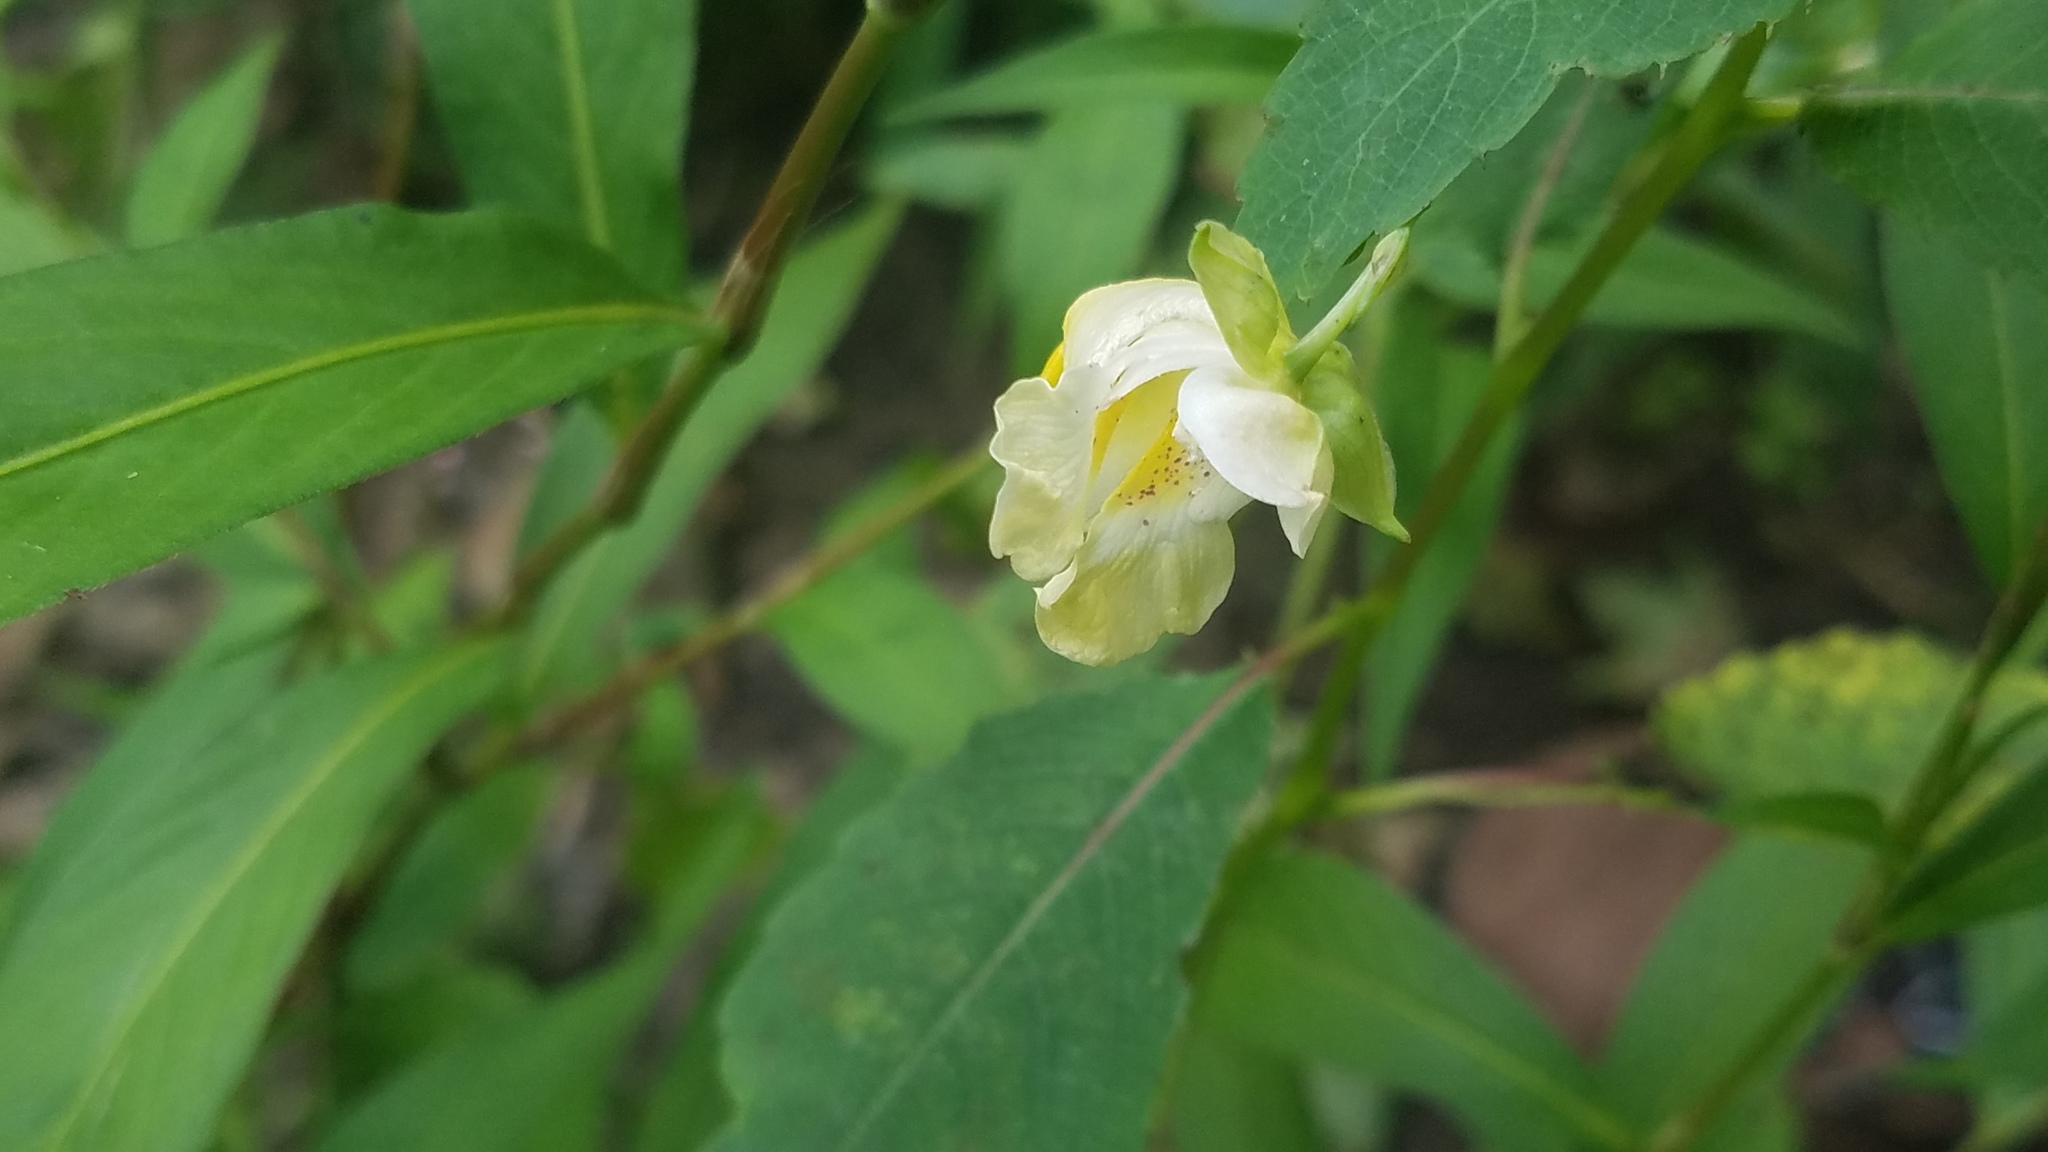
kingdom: Plantae
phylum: Tracheophyta
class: Magnoliopsida
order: Ericales
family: Balsaminaceae
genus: Impatiens
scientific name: Impatiens pallida
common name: Pale snapweed
